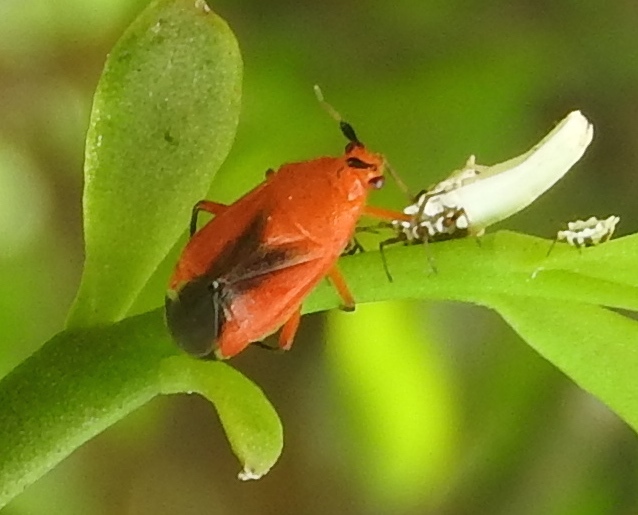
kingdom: Animalia
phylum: Arthropoda
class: Insecta
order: Hemiptera
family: Miridae
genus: Ambracius
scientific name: Ambracius
